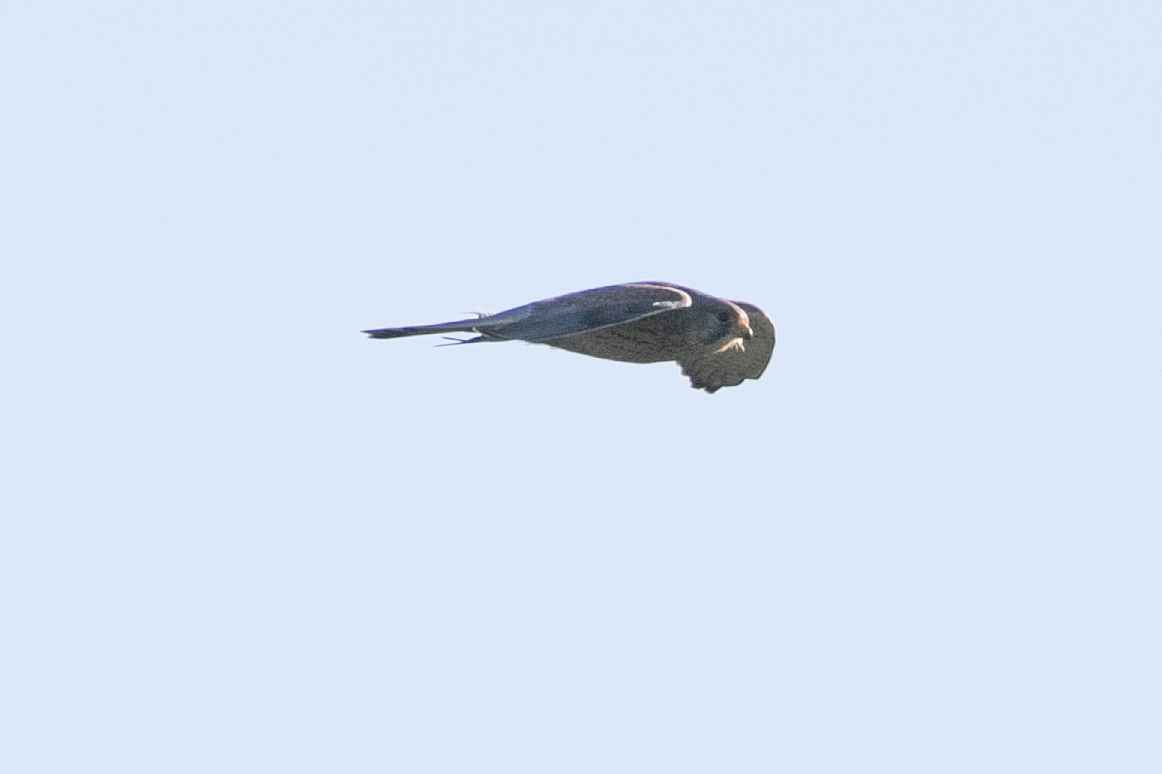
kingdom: Animalia
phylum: Chordata
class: Aves
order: Falconiformes
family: Falconidae
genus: Falco
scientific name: Falco tinnunculus
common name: Common kestrel
